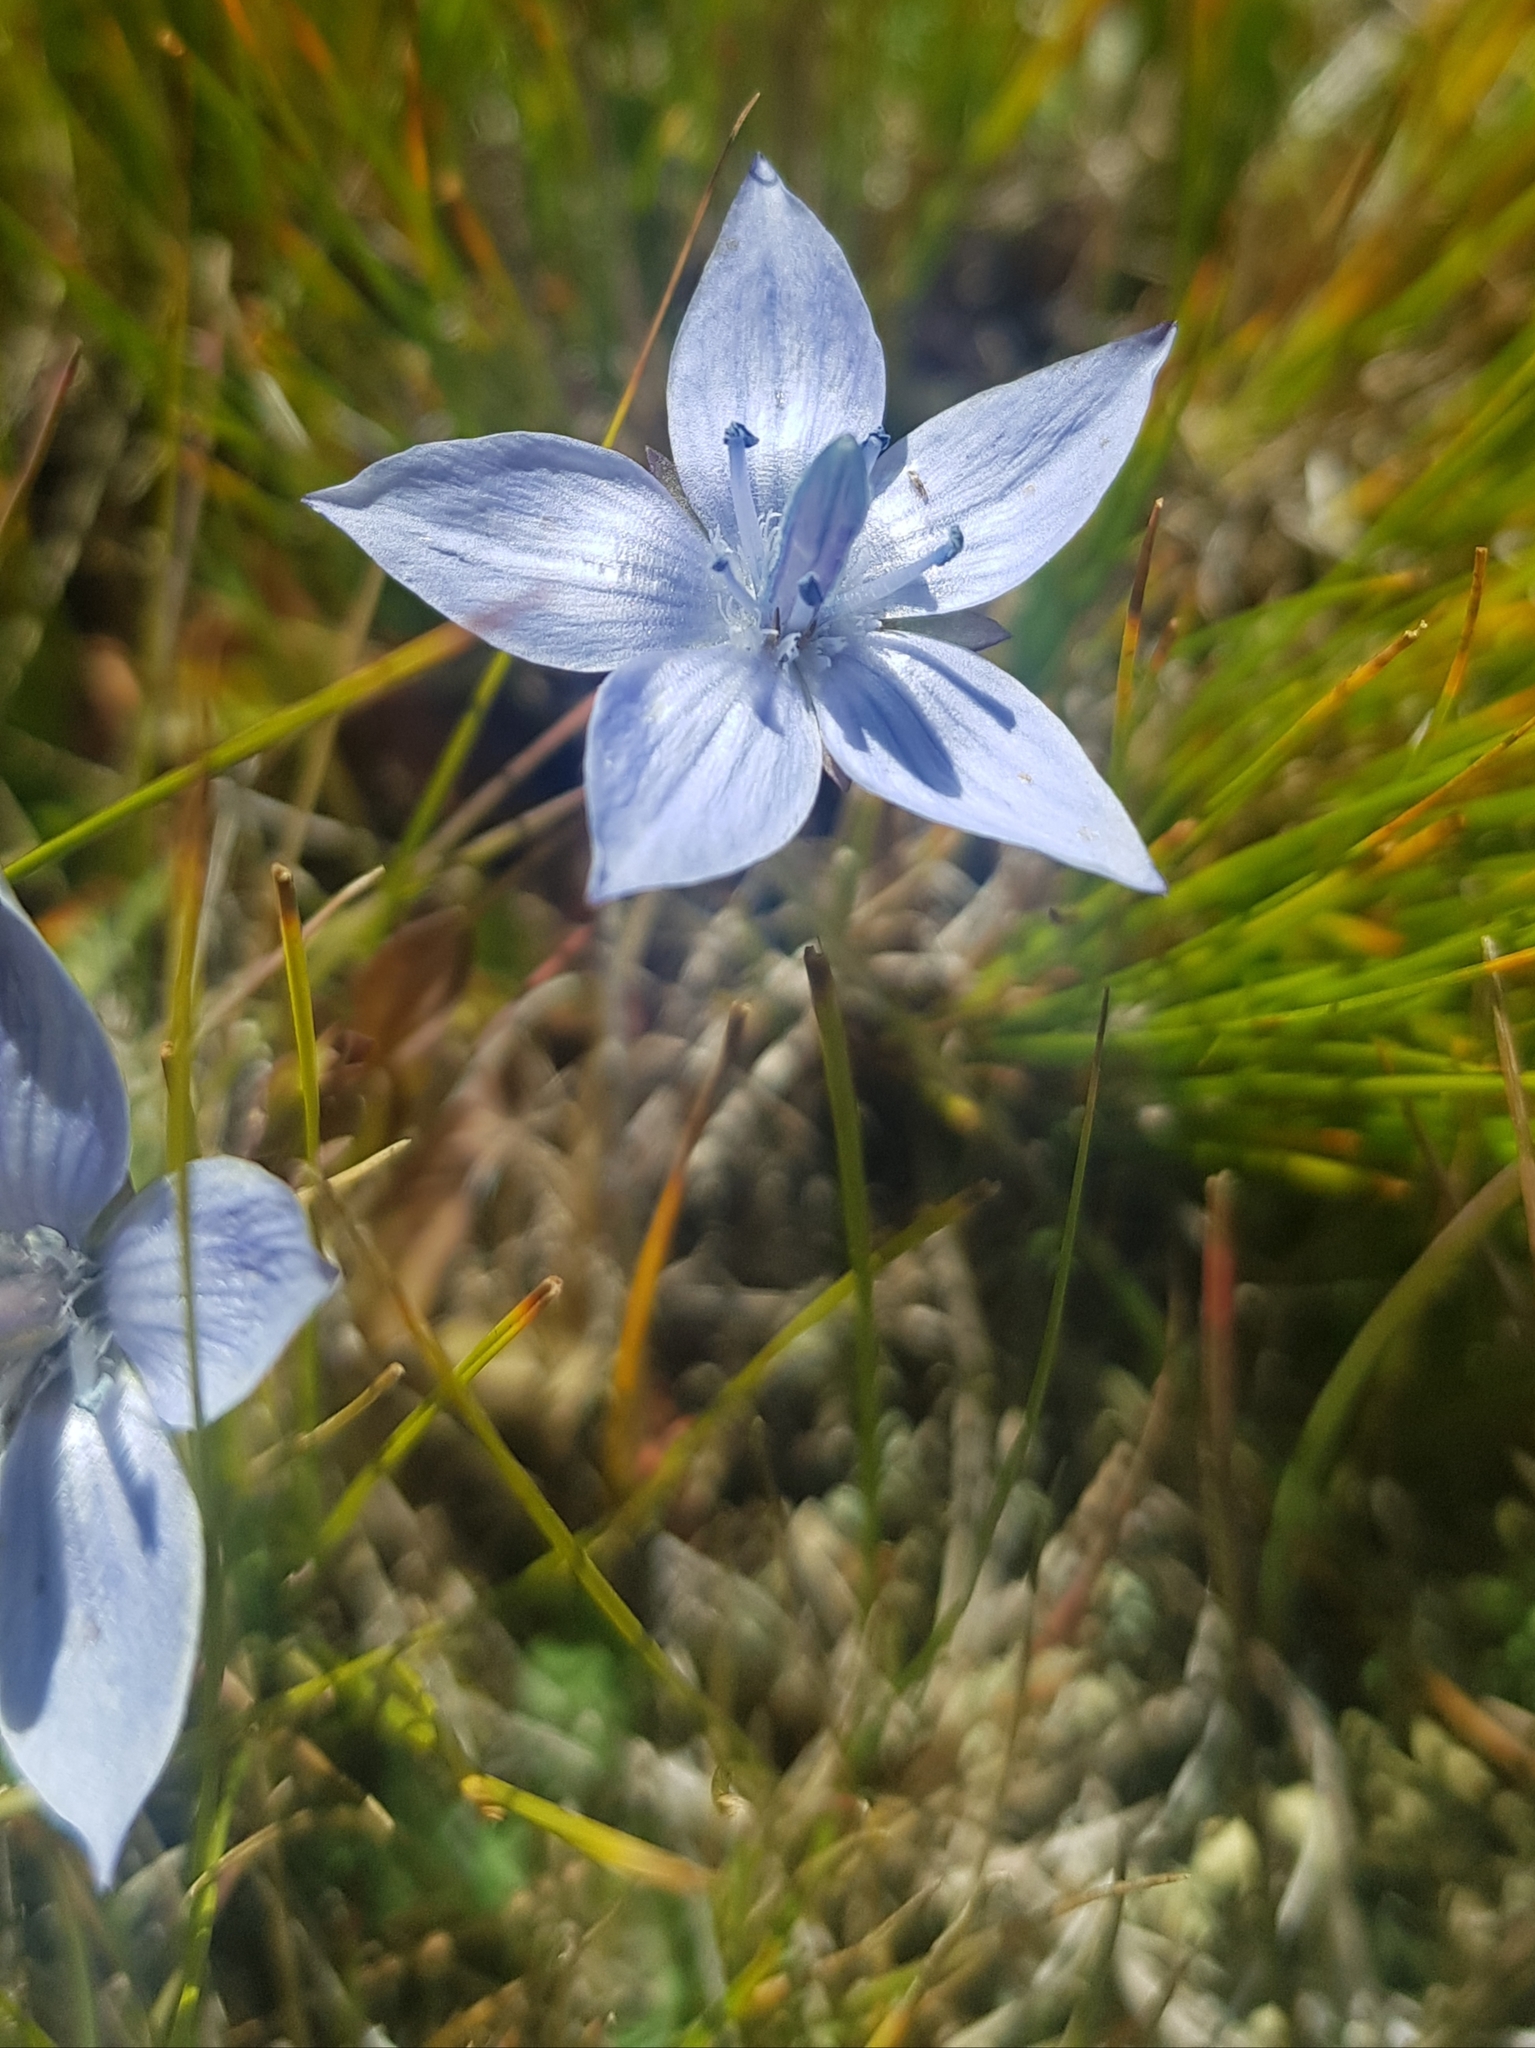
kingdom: Plantae
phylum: Tracheophyta
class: Magnoliopsida
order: Gentianales
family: Gentianaceae
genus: Lomatogonium
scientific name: Lomatogonium carinthiacum
